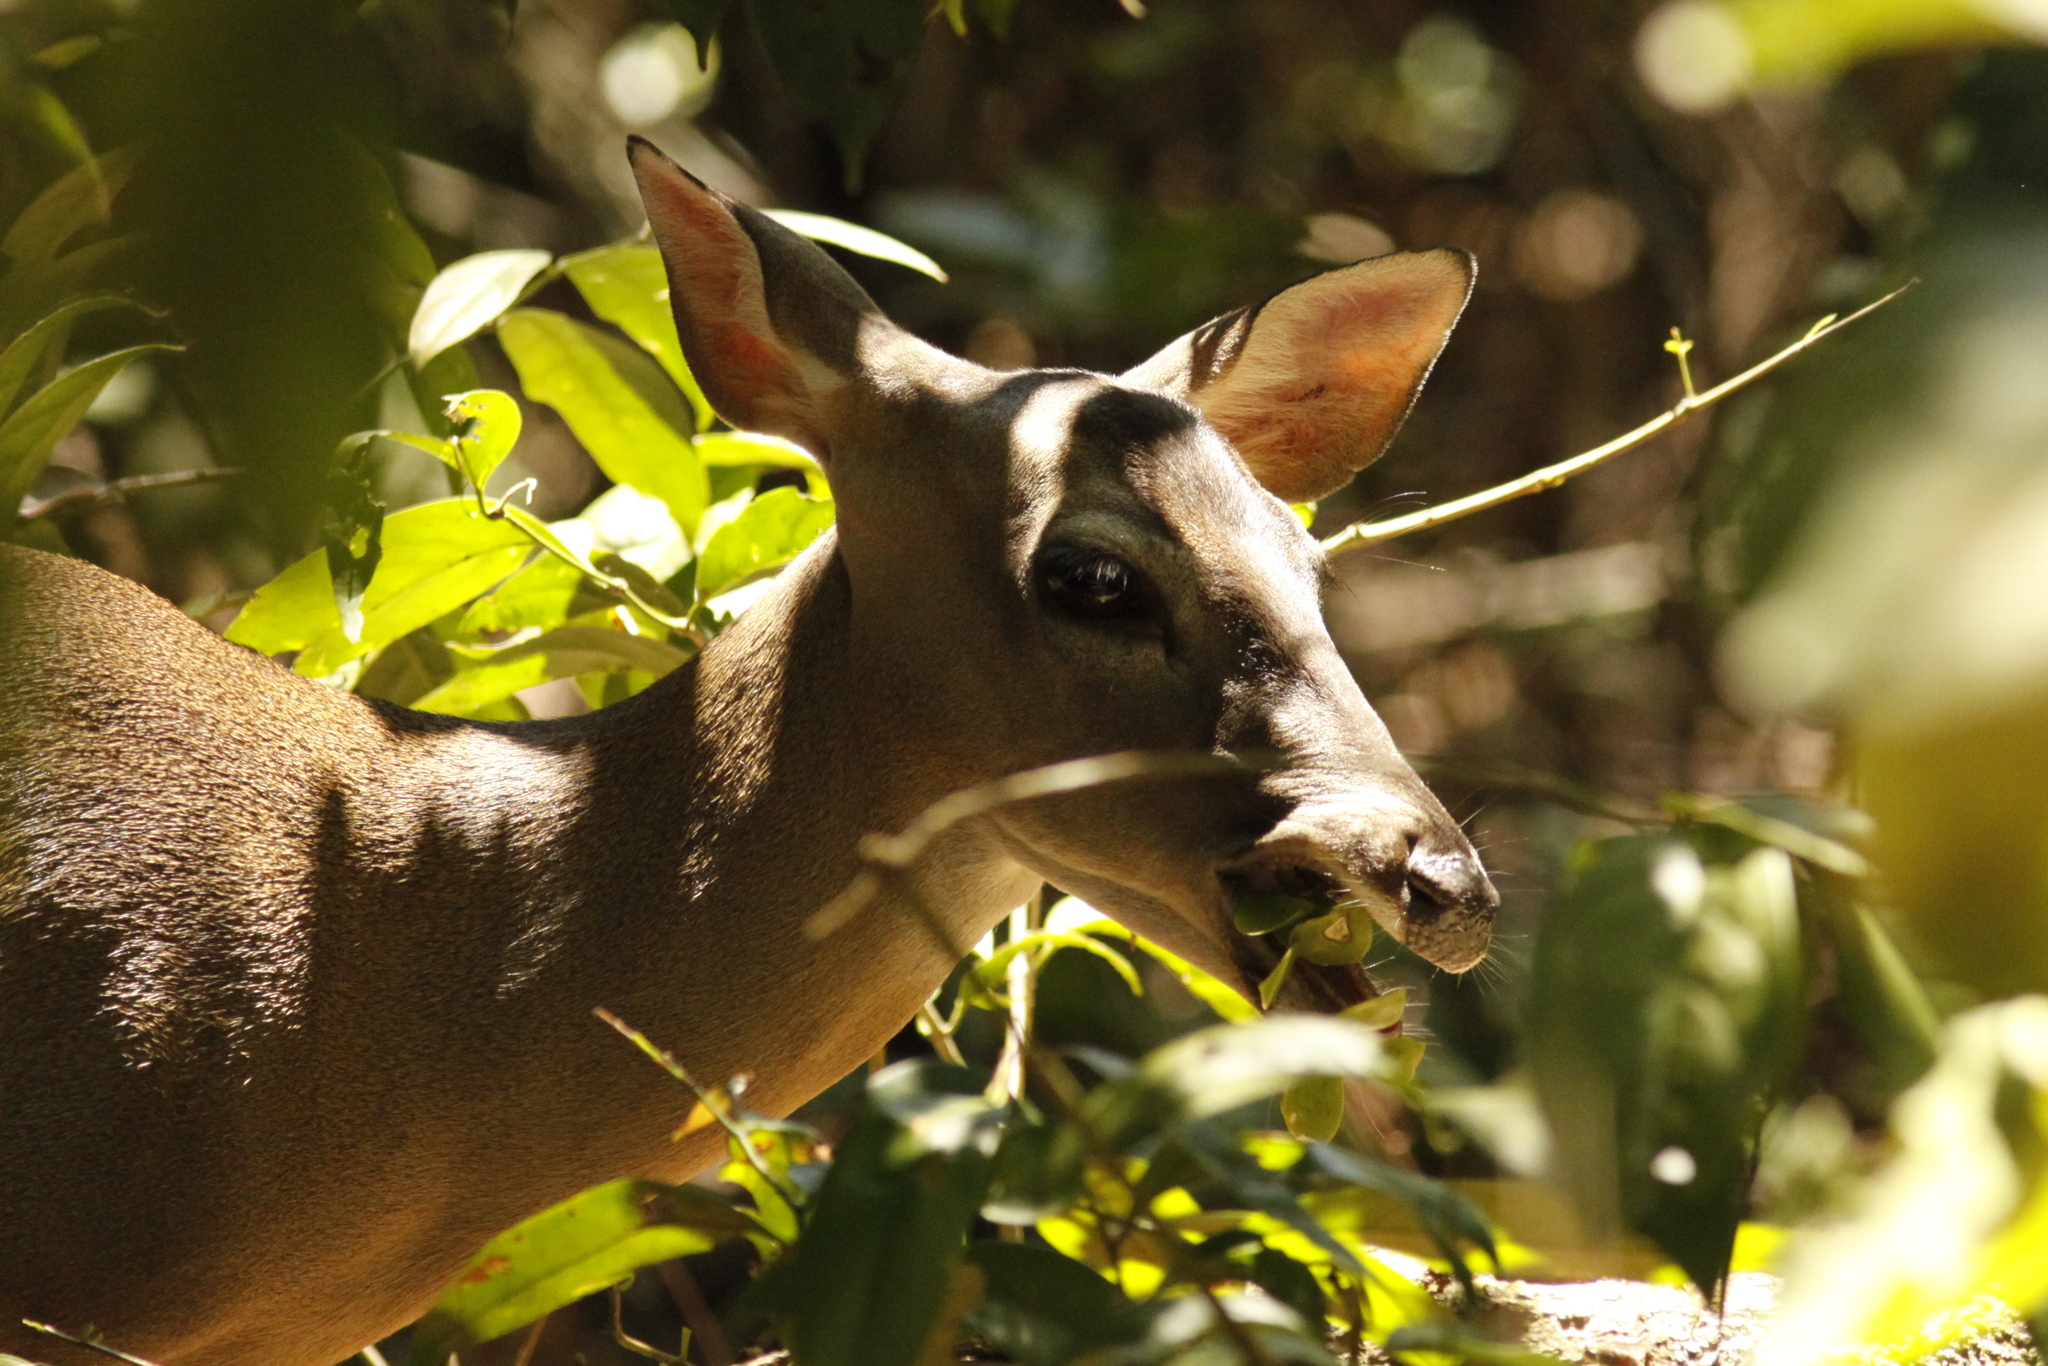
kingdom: Animalia
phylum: Chordata
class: Mammalia
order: Artiodactyla
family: Cervidae
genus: Odocoileus
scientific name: Odocoileus virginianus
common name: White-tailed deer
